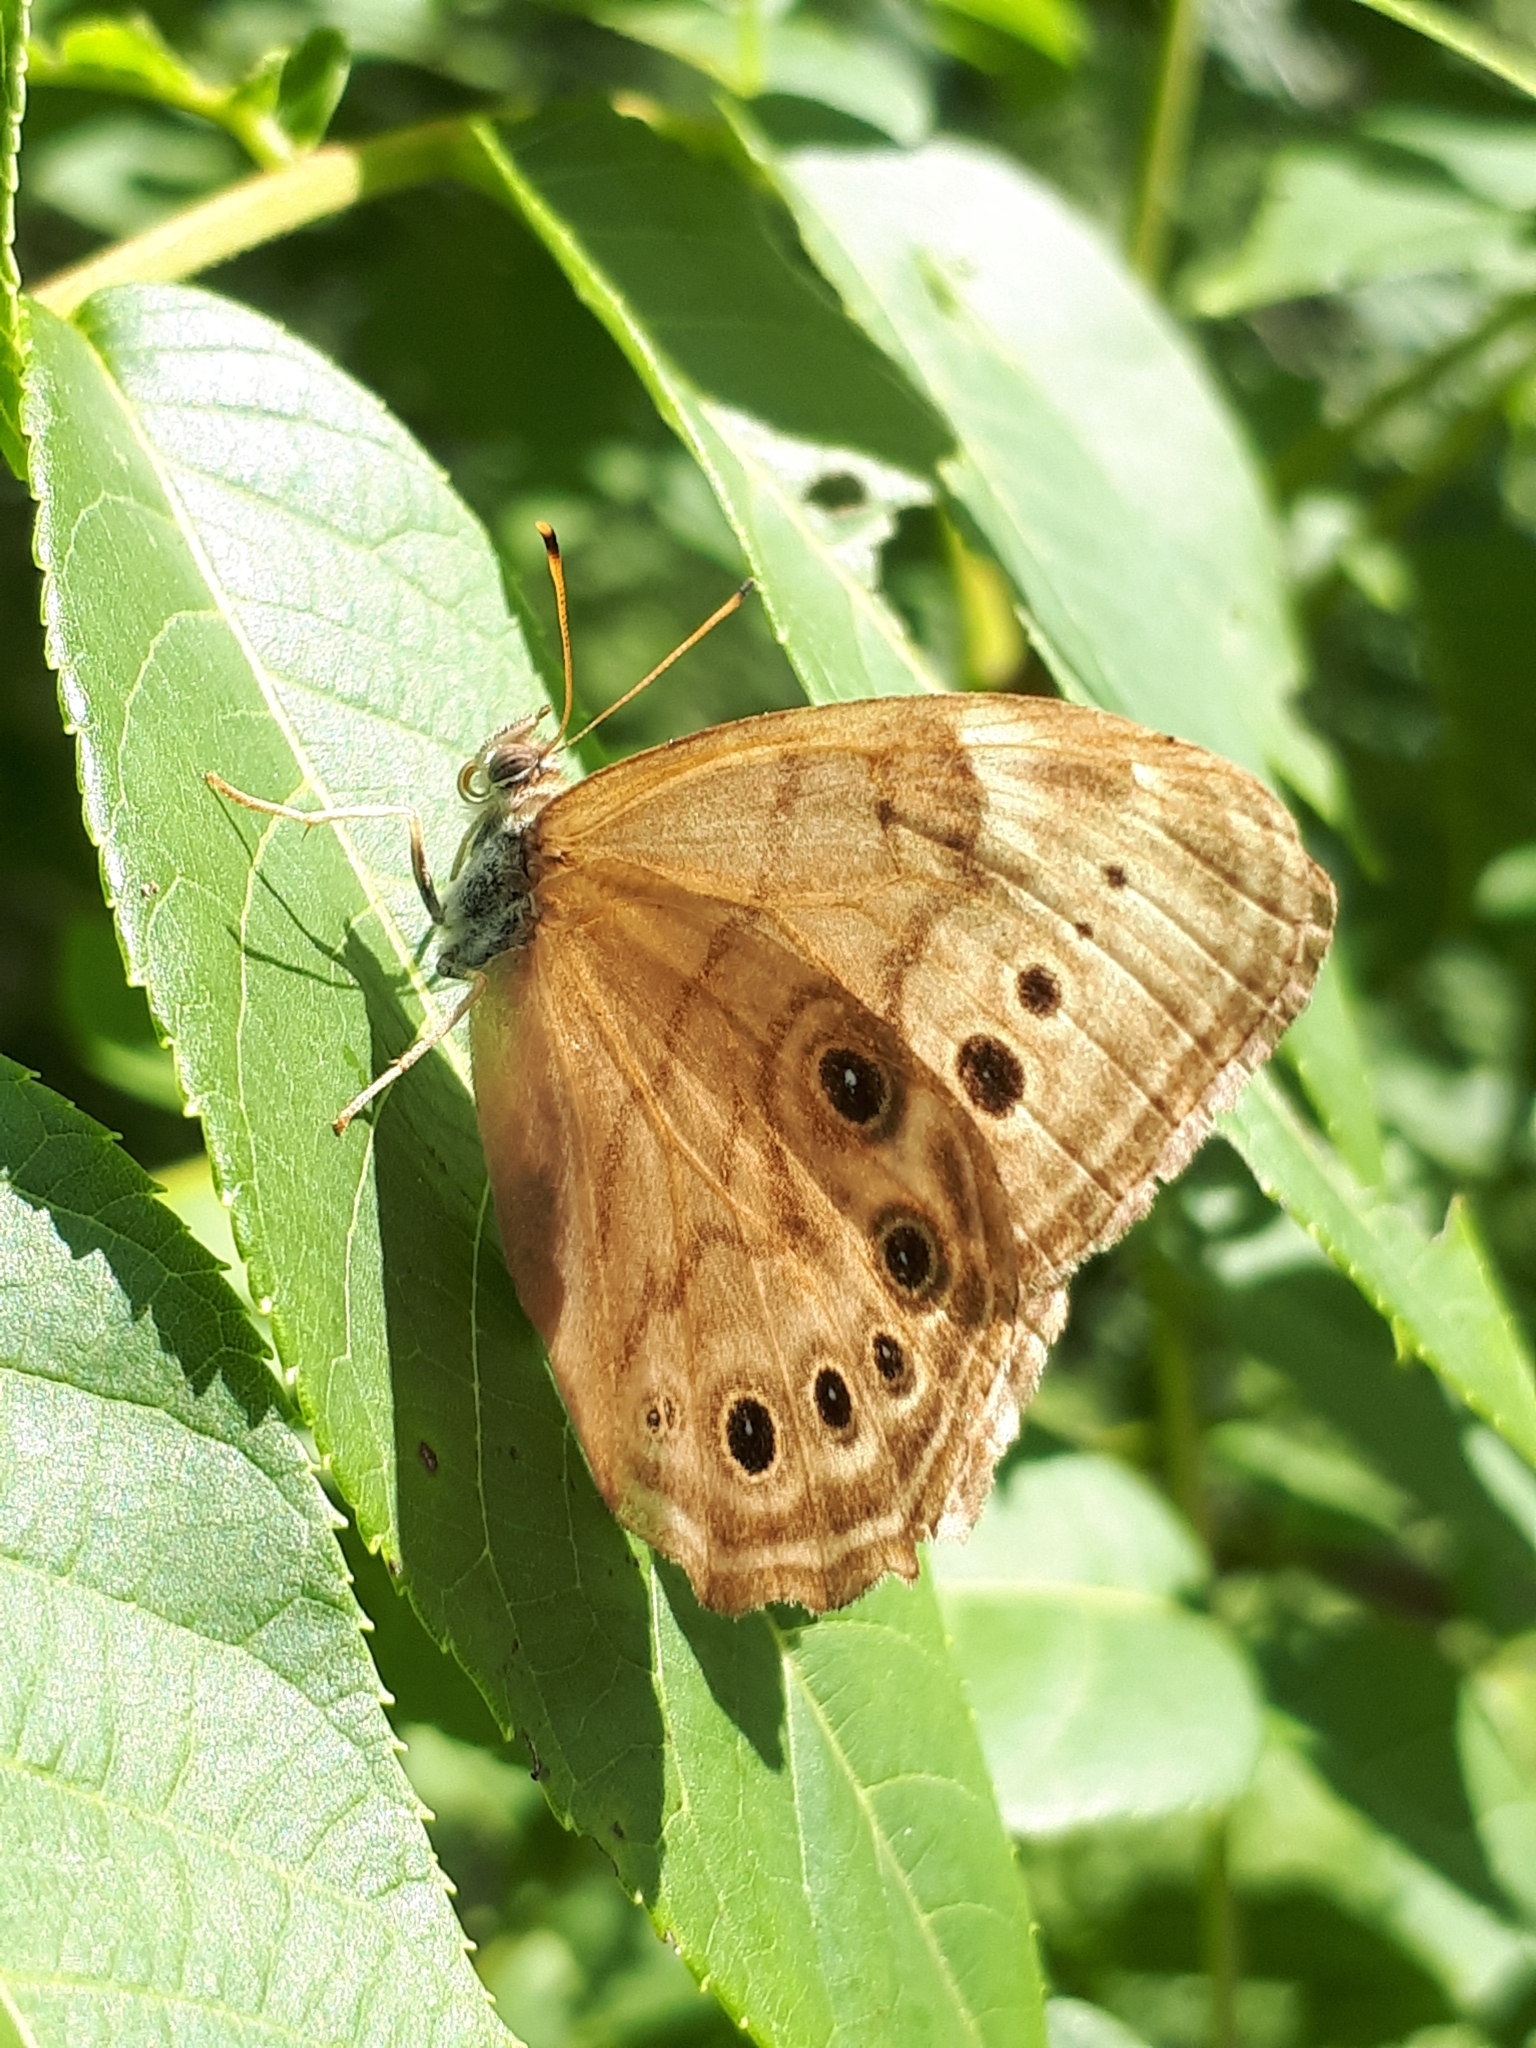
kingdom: Animalia
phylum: Arthropoda
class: Insecta
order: Lepidoptera
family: Nymphalidae
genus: Lethe
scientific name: Lethe anthedon
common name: Northern pearly-eye
